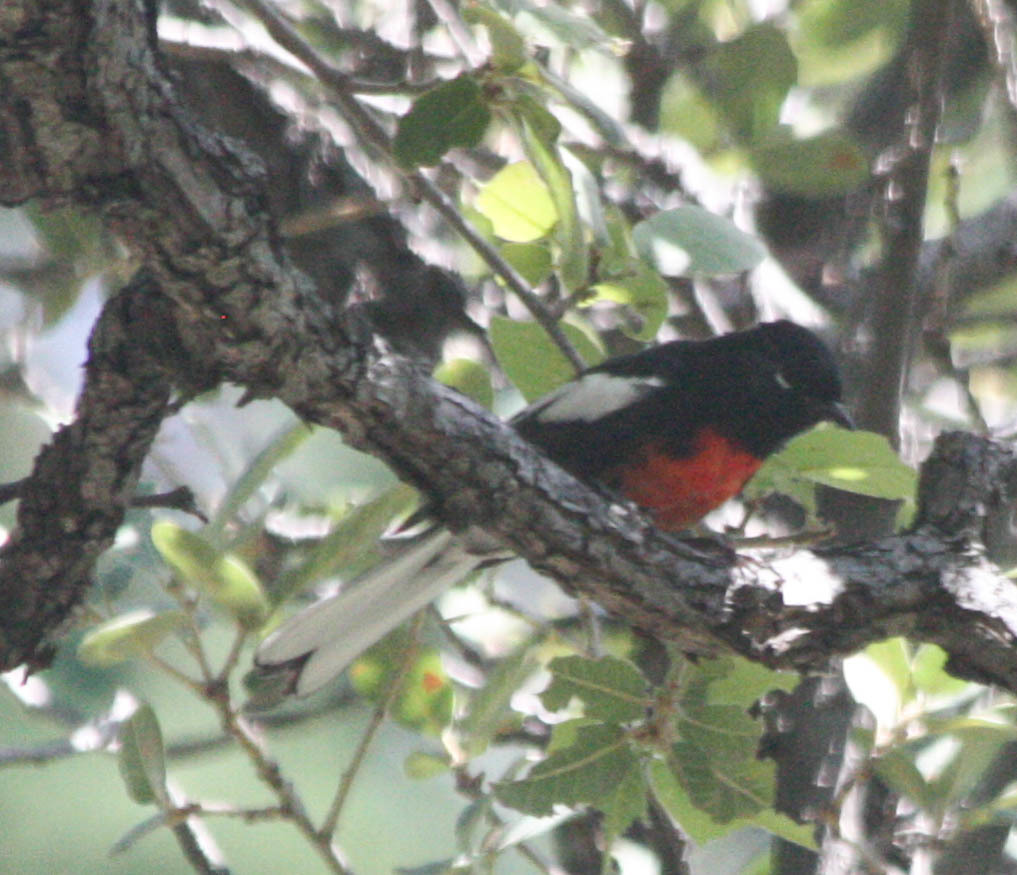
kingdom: Animalia
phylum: Chordata
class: Aves
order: Passeriformes
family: Parulidae
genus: Myioborus
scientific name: Myioborus pictus
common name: Painted whitestart
